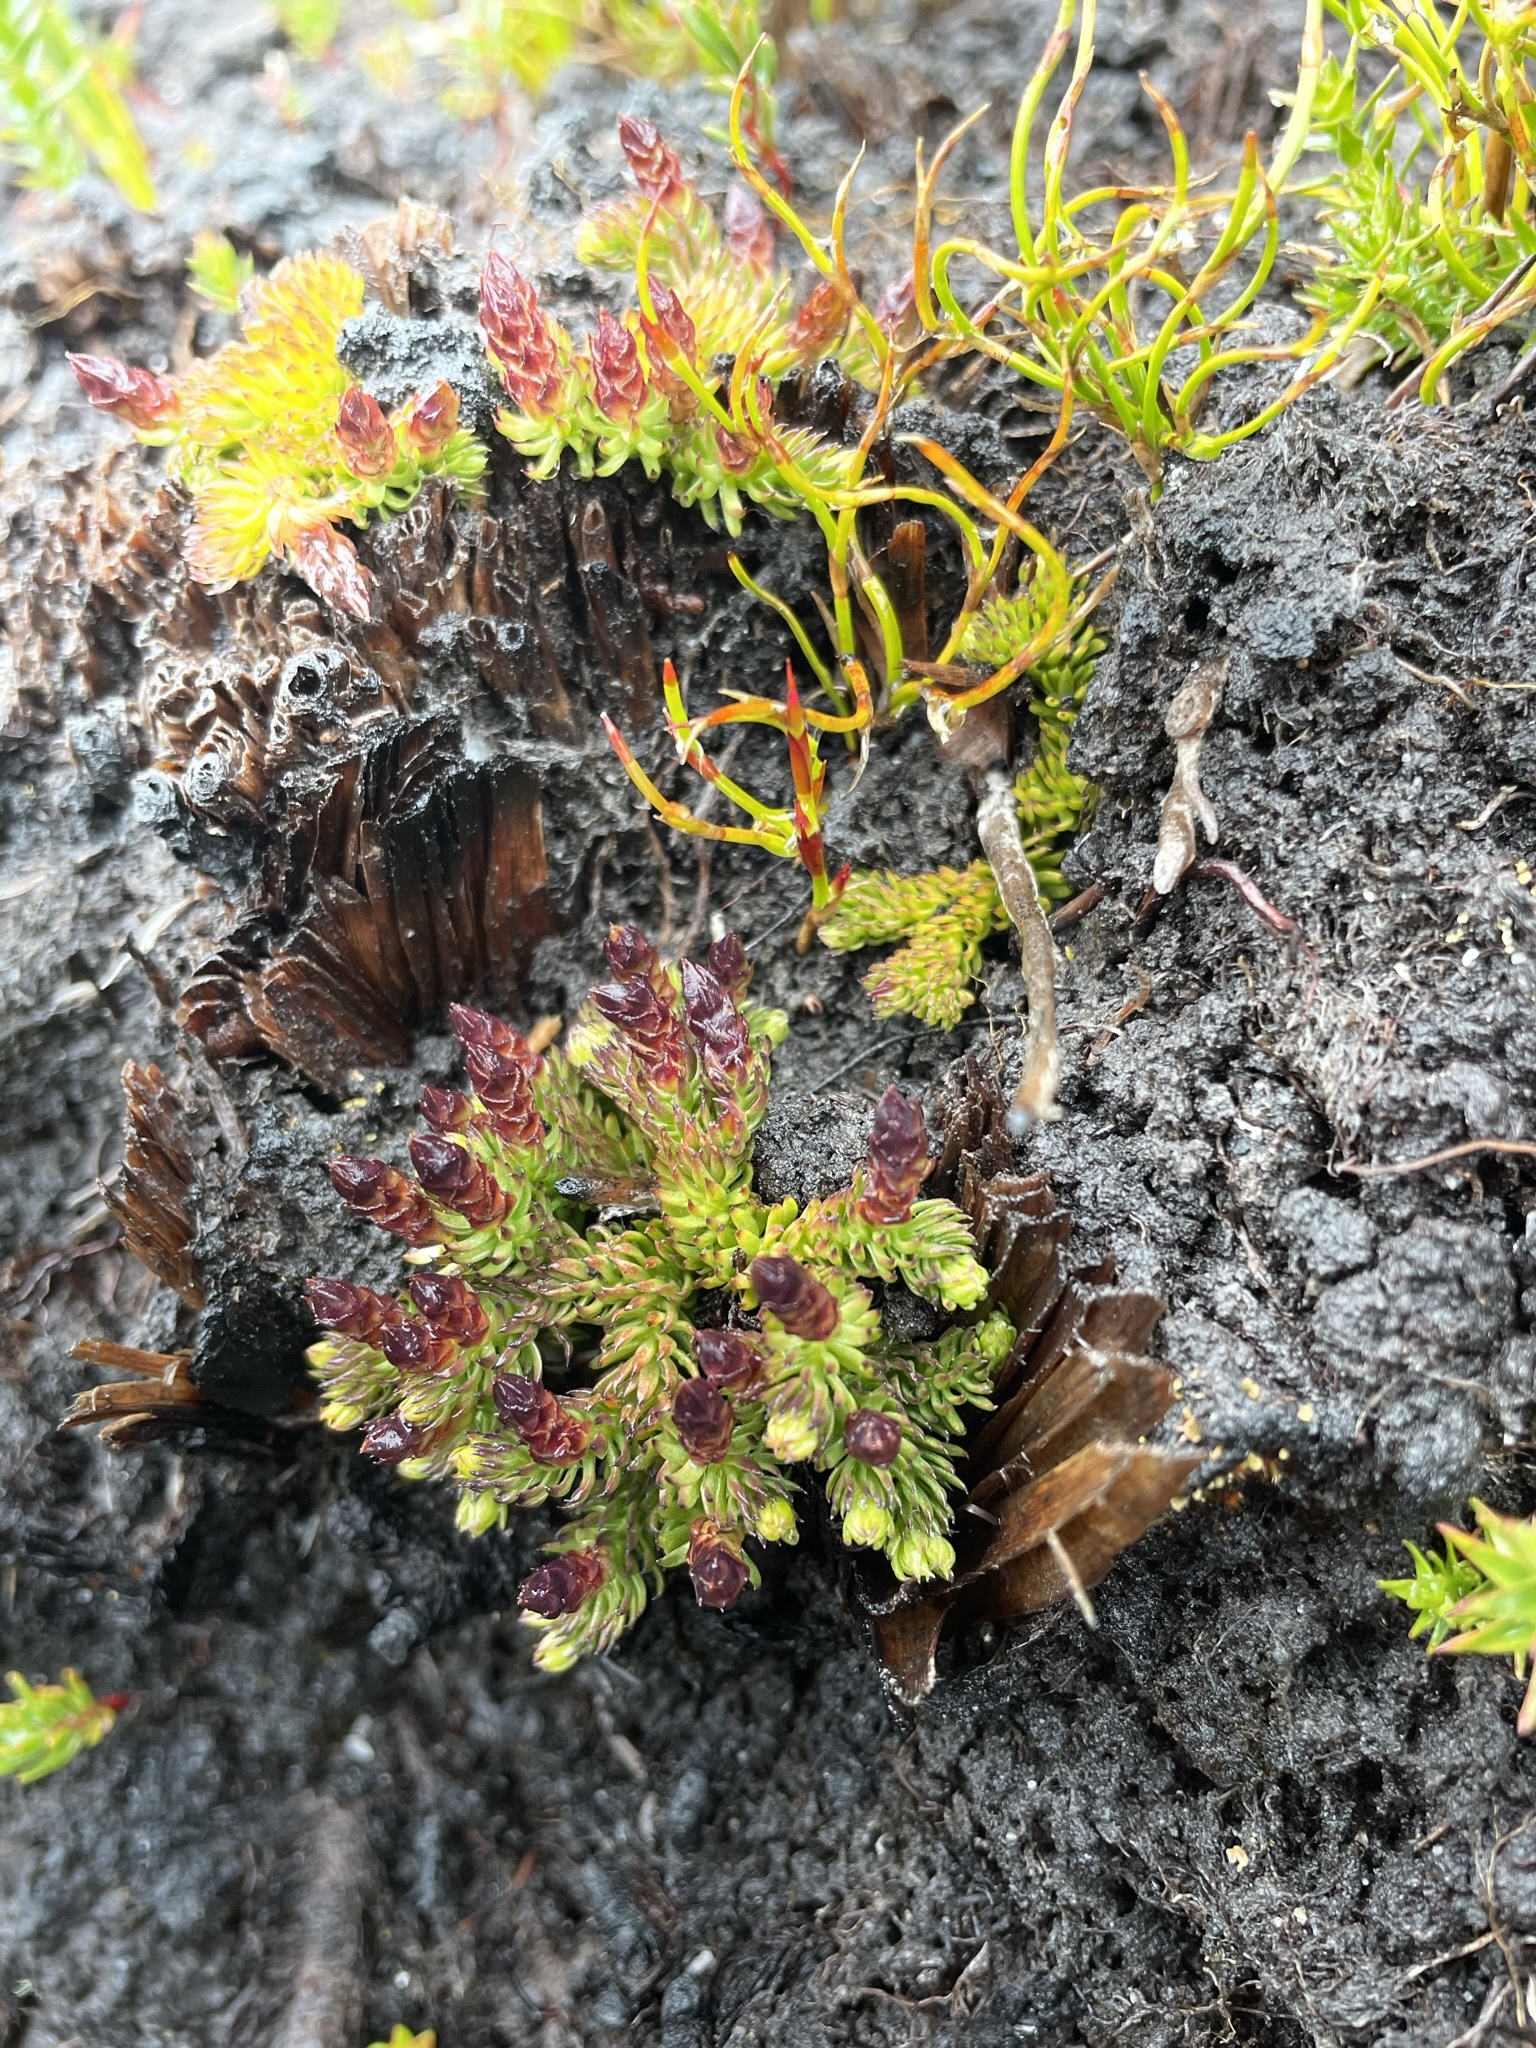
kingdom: Plantae
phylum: Tracheophyta
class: Lycopodiopsida
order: Lycopodiales
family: Lycopodiaceae
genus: Lateristachys
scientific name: Lateristachys diffusa
